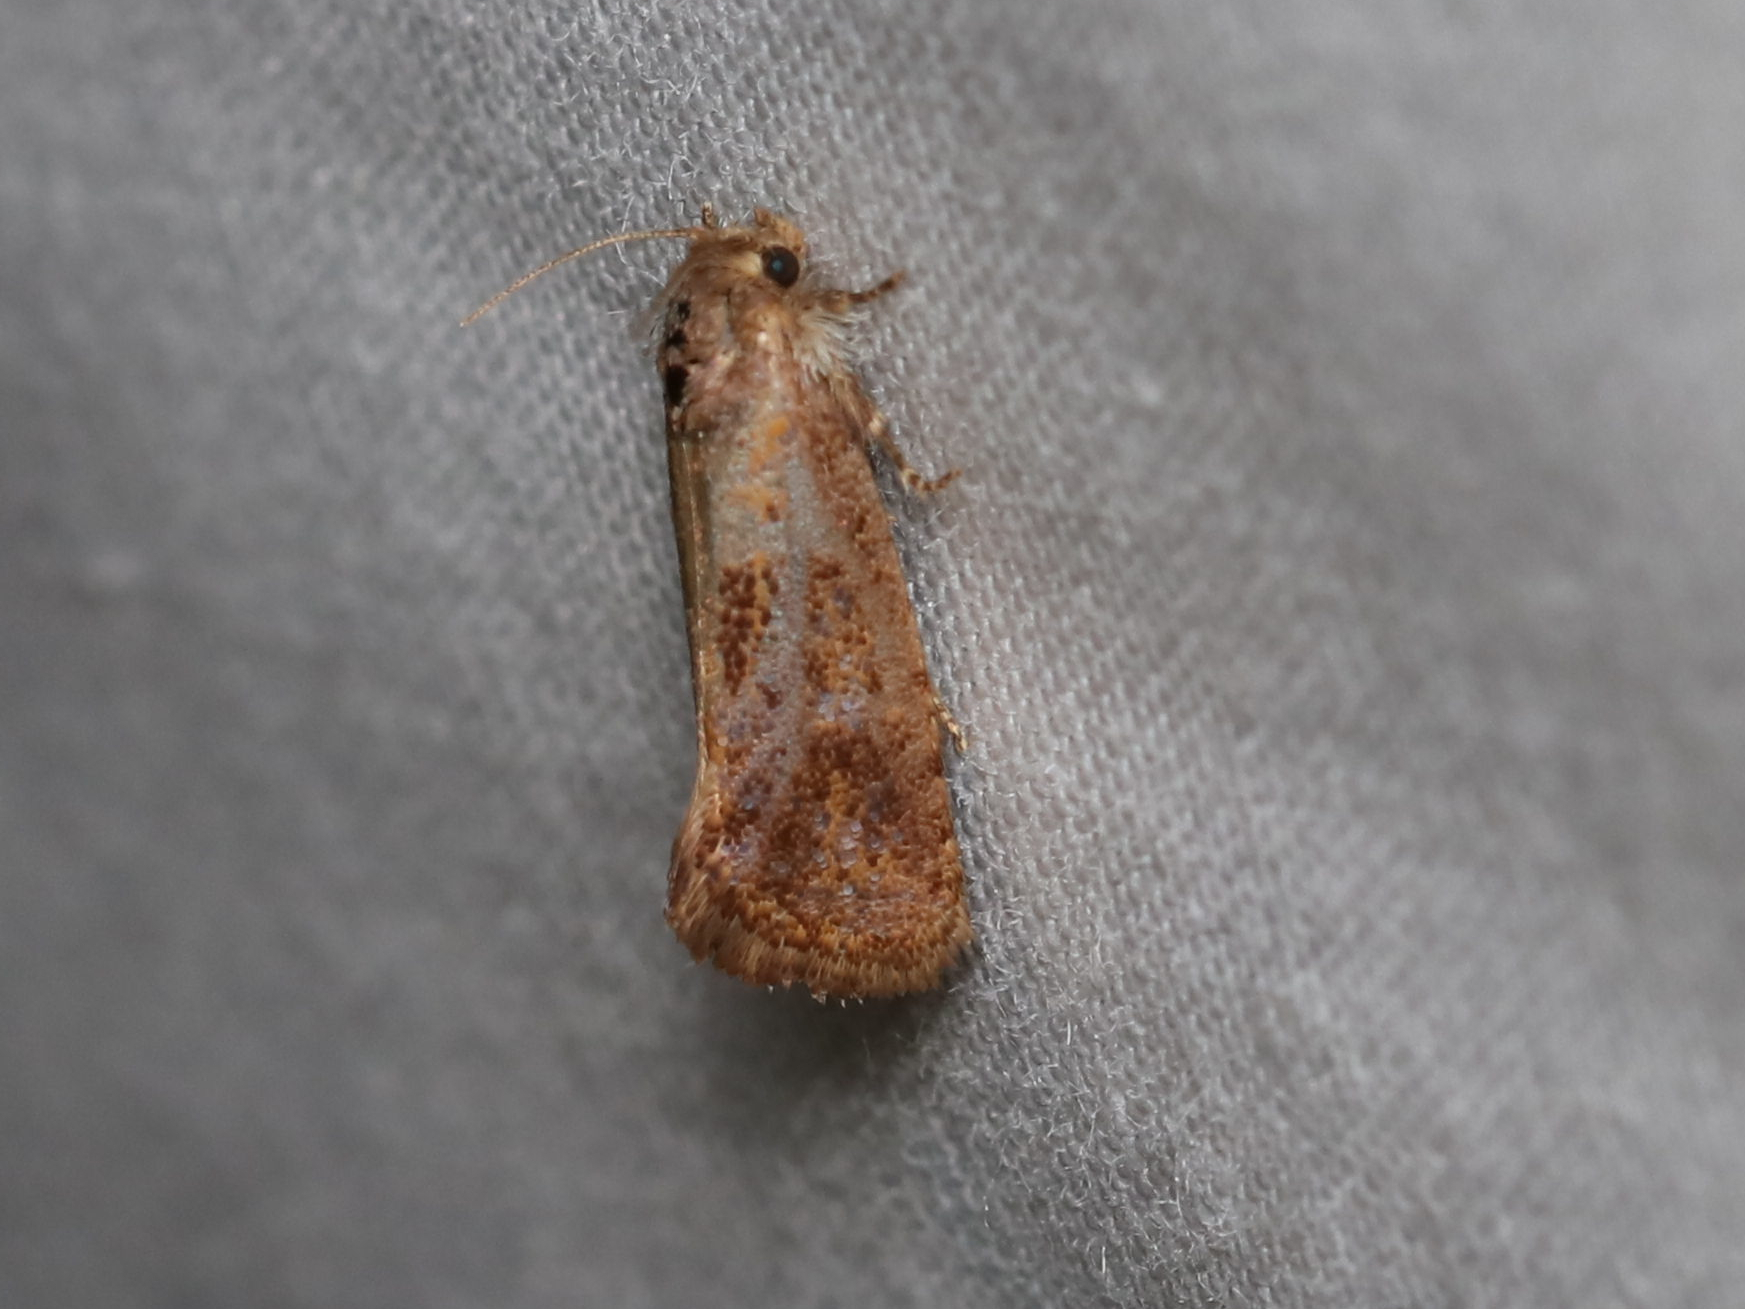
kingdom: Animalia
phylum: Arthropoda
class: Insecta
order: Lepidoptera
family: Tineidae
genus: Acrolophus
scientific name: Acrolophus panamae
